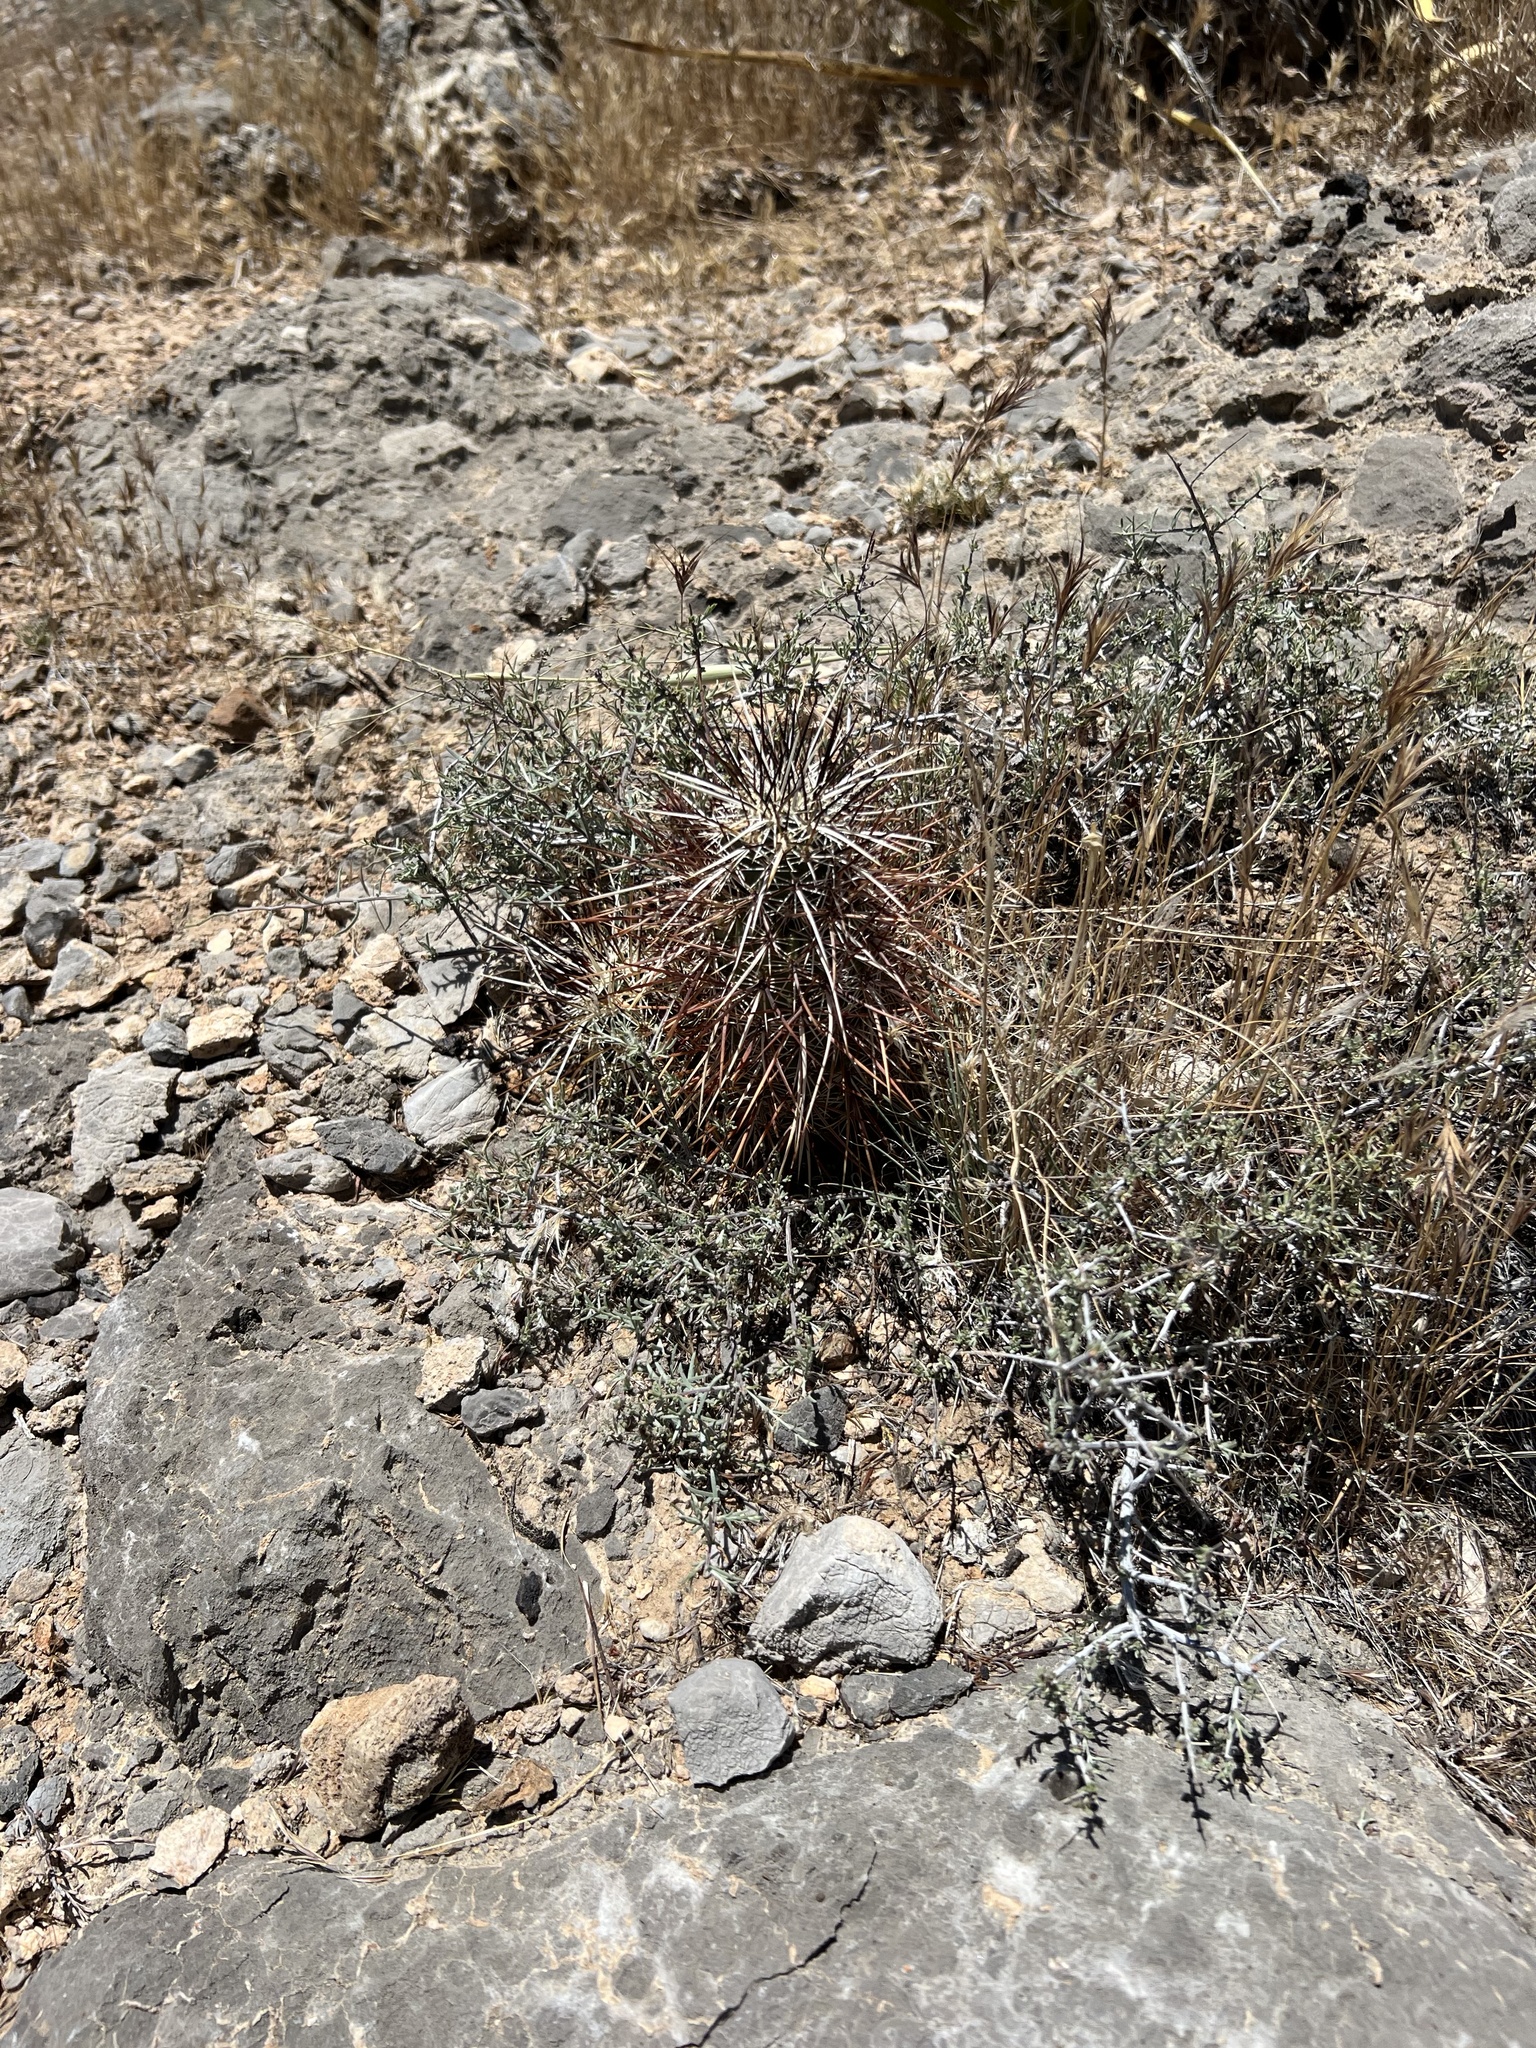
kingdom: Plantae
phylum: Tracheophyta
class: Magnoliopsida
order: Caryophyllales
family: Cactaceae
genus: Echinocereus
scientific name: Echinocereus engelmannii
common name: Engelmann's hedgehog cactus
